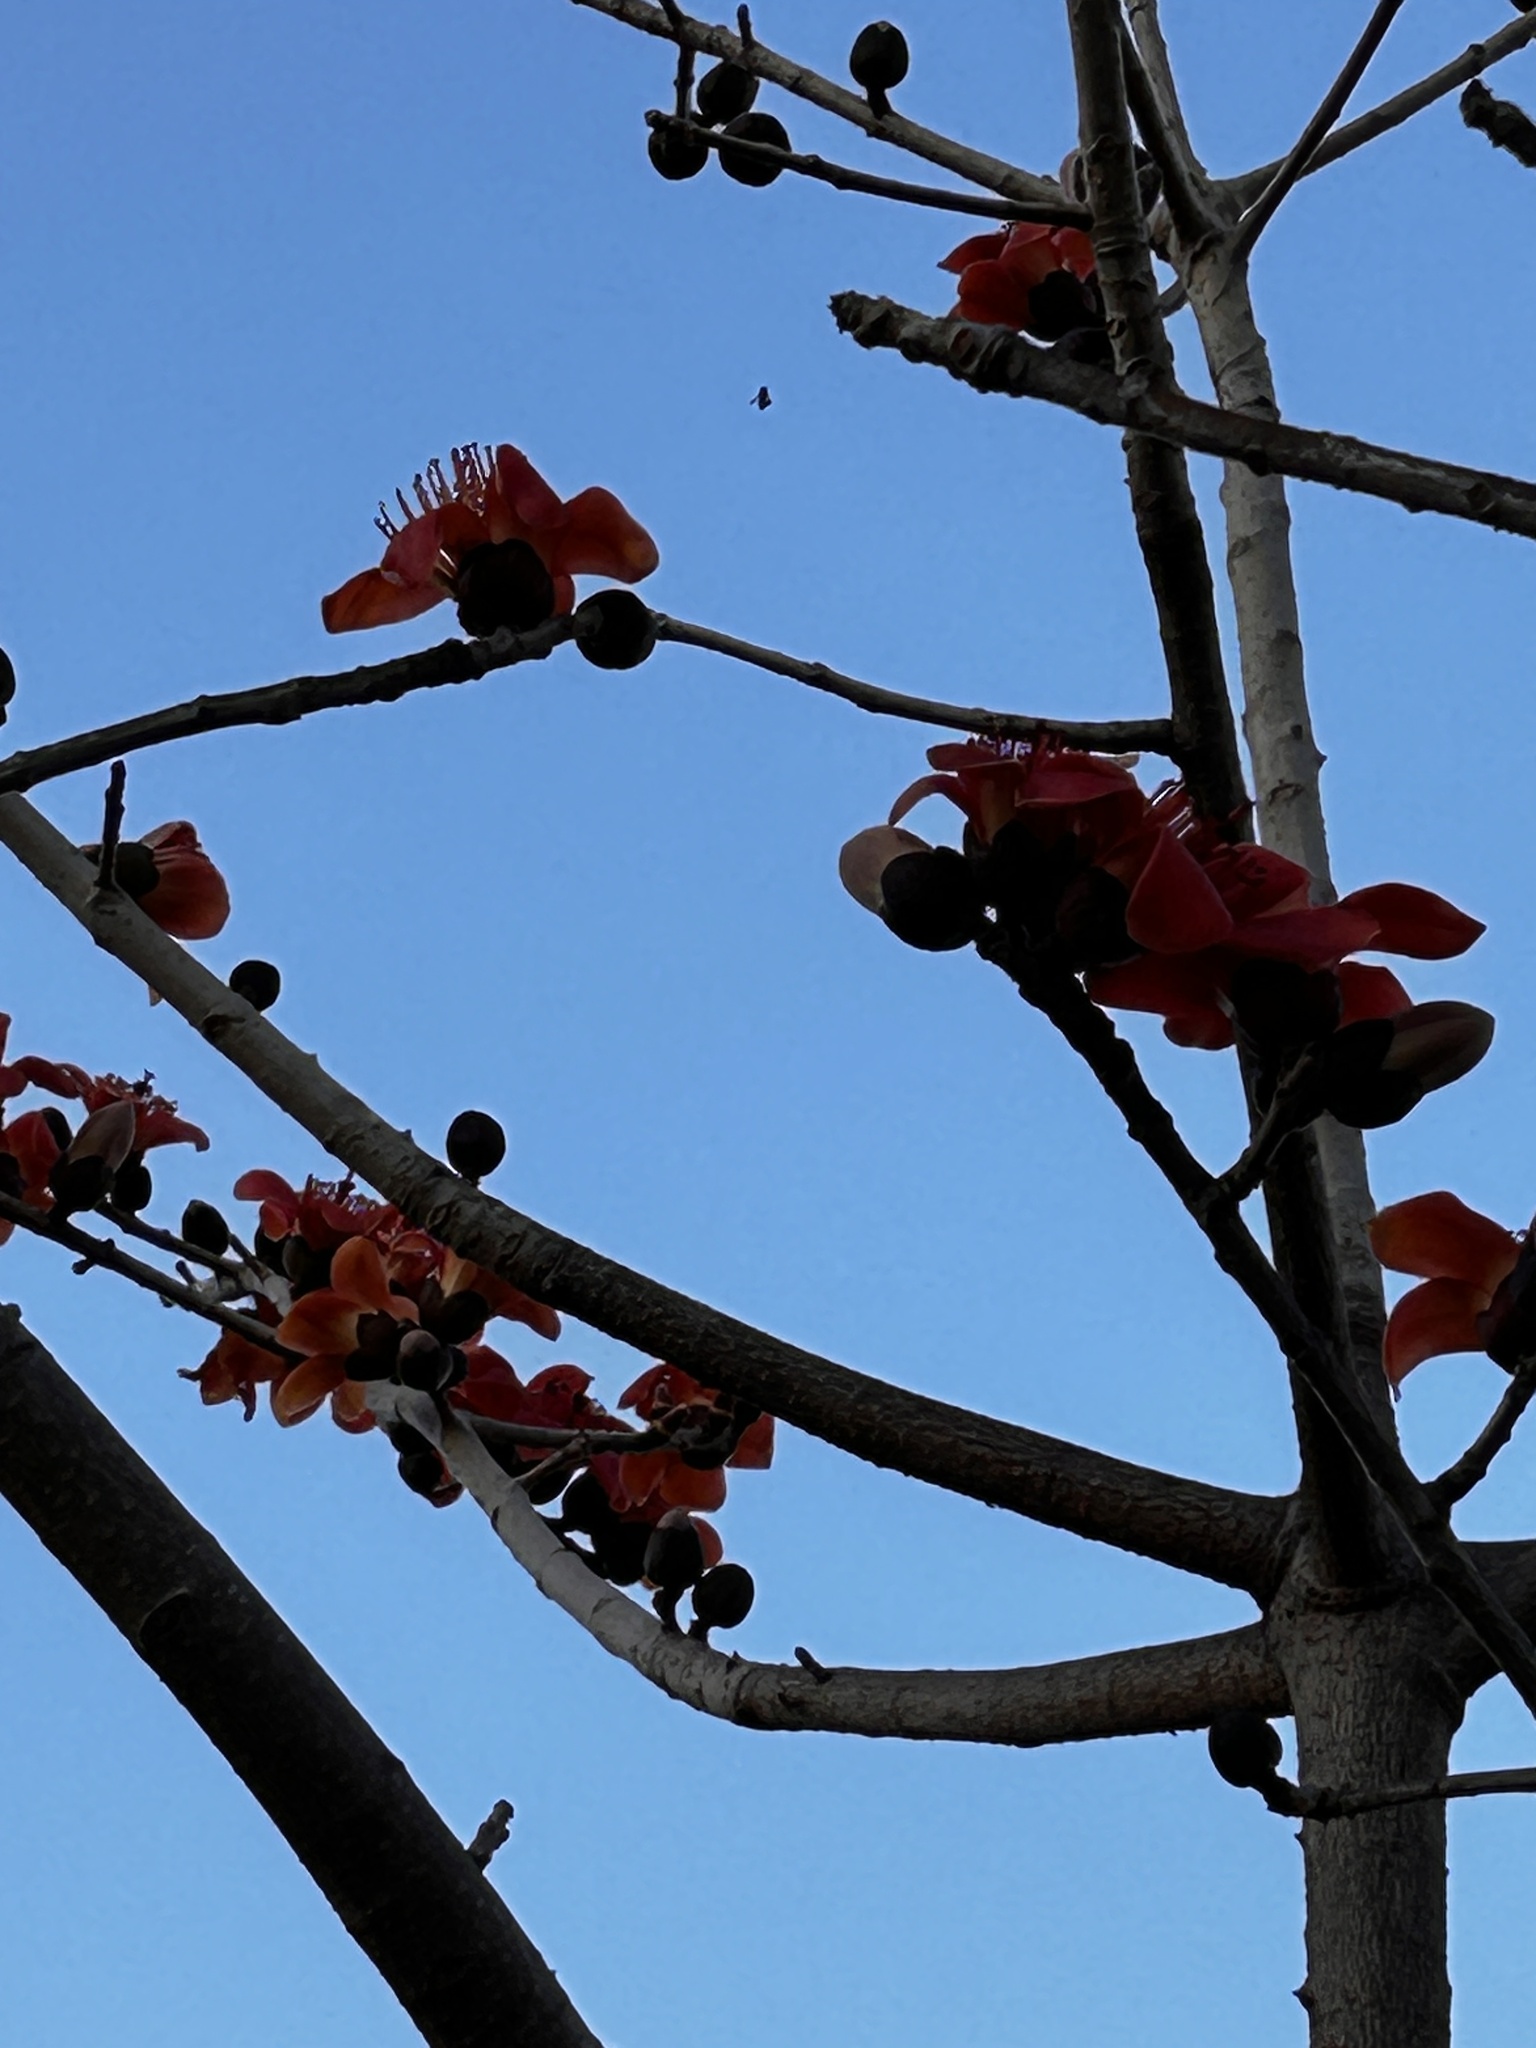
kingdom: Plantae
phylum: Tracheophyta
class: Magnoliopsida
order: Malvales
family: Malvaceae
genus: Bombax
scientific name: Bombax ceiba
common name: Northern-cottonwood
